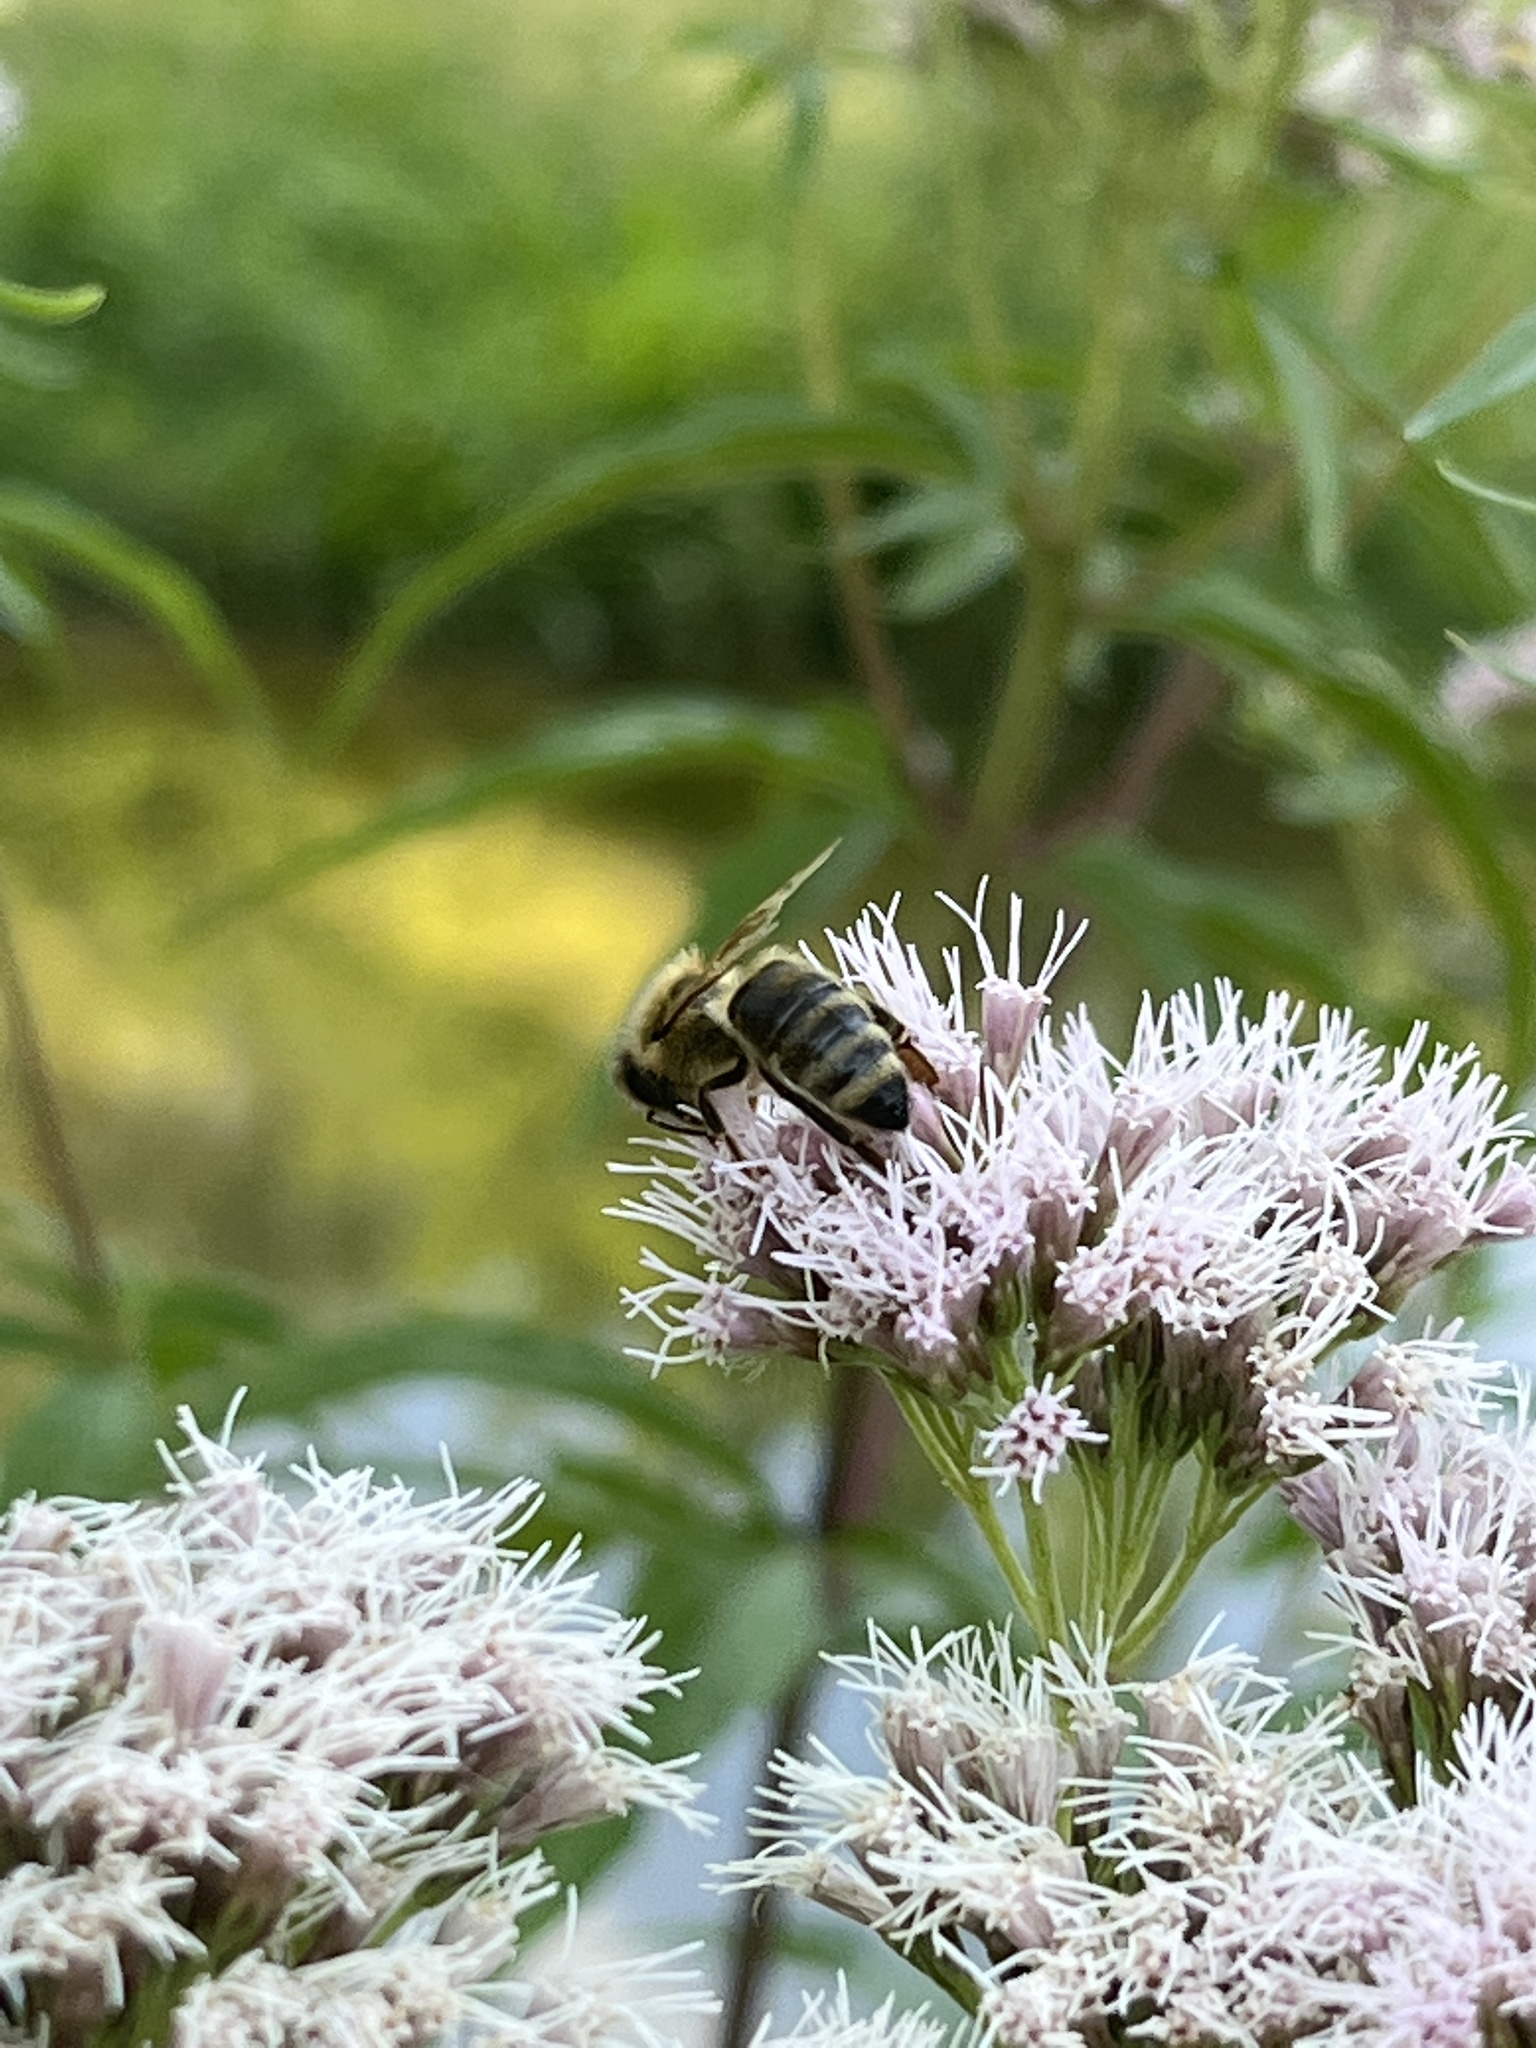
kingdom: Animalia
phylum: Arthropoda
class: Insecta
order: Hymenoptera
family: Apidae
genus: Apis
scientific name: Apis mellifera
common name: Honey bee
